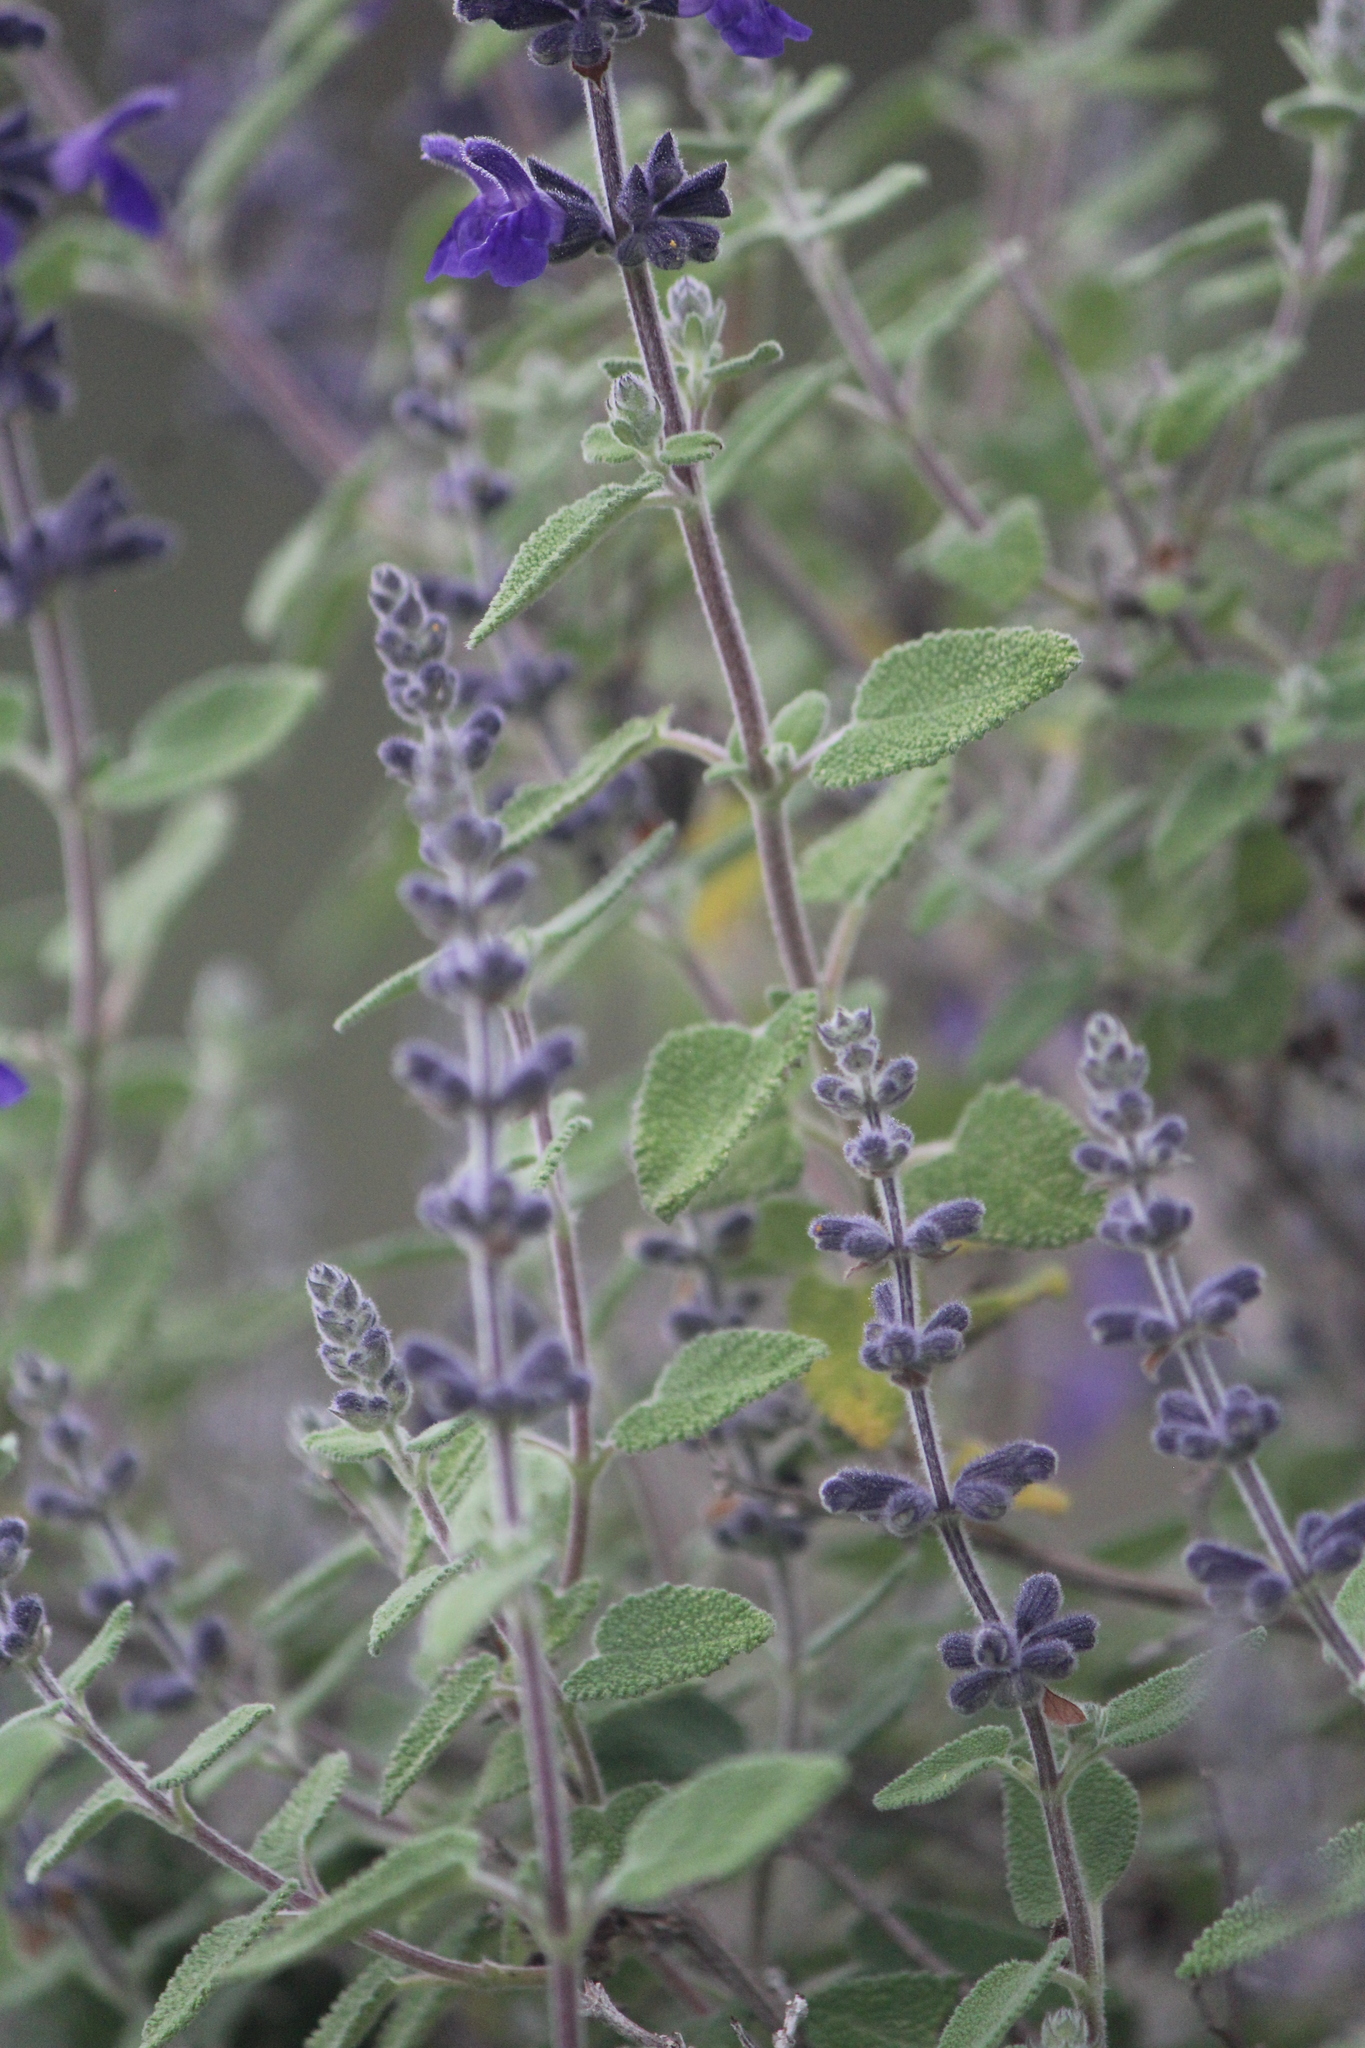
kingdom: Plantae
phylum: Tracheophyta
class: Magnoliopsida
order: Lamiales
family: Lamiaceae
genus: Salvia
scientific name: Salvia melissodora
